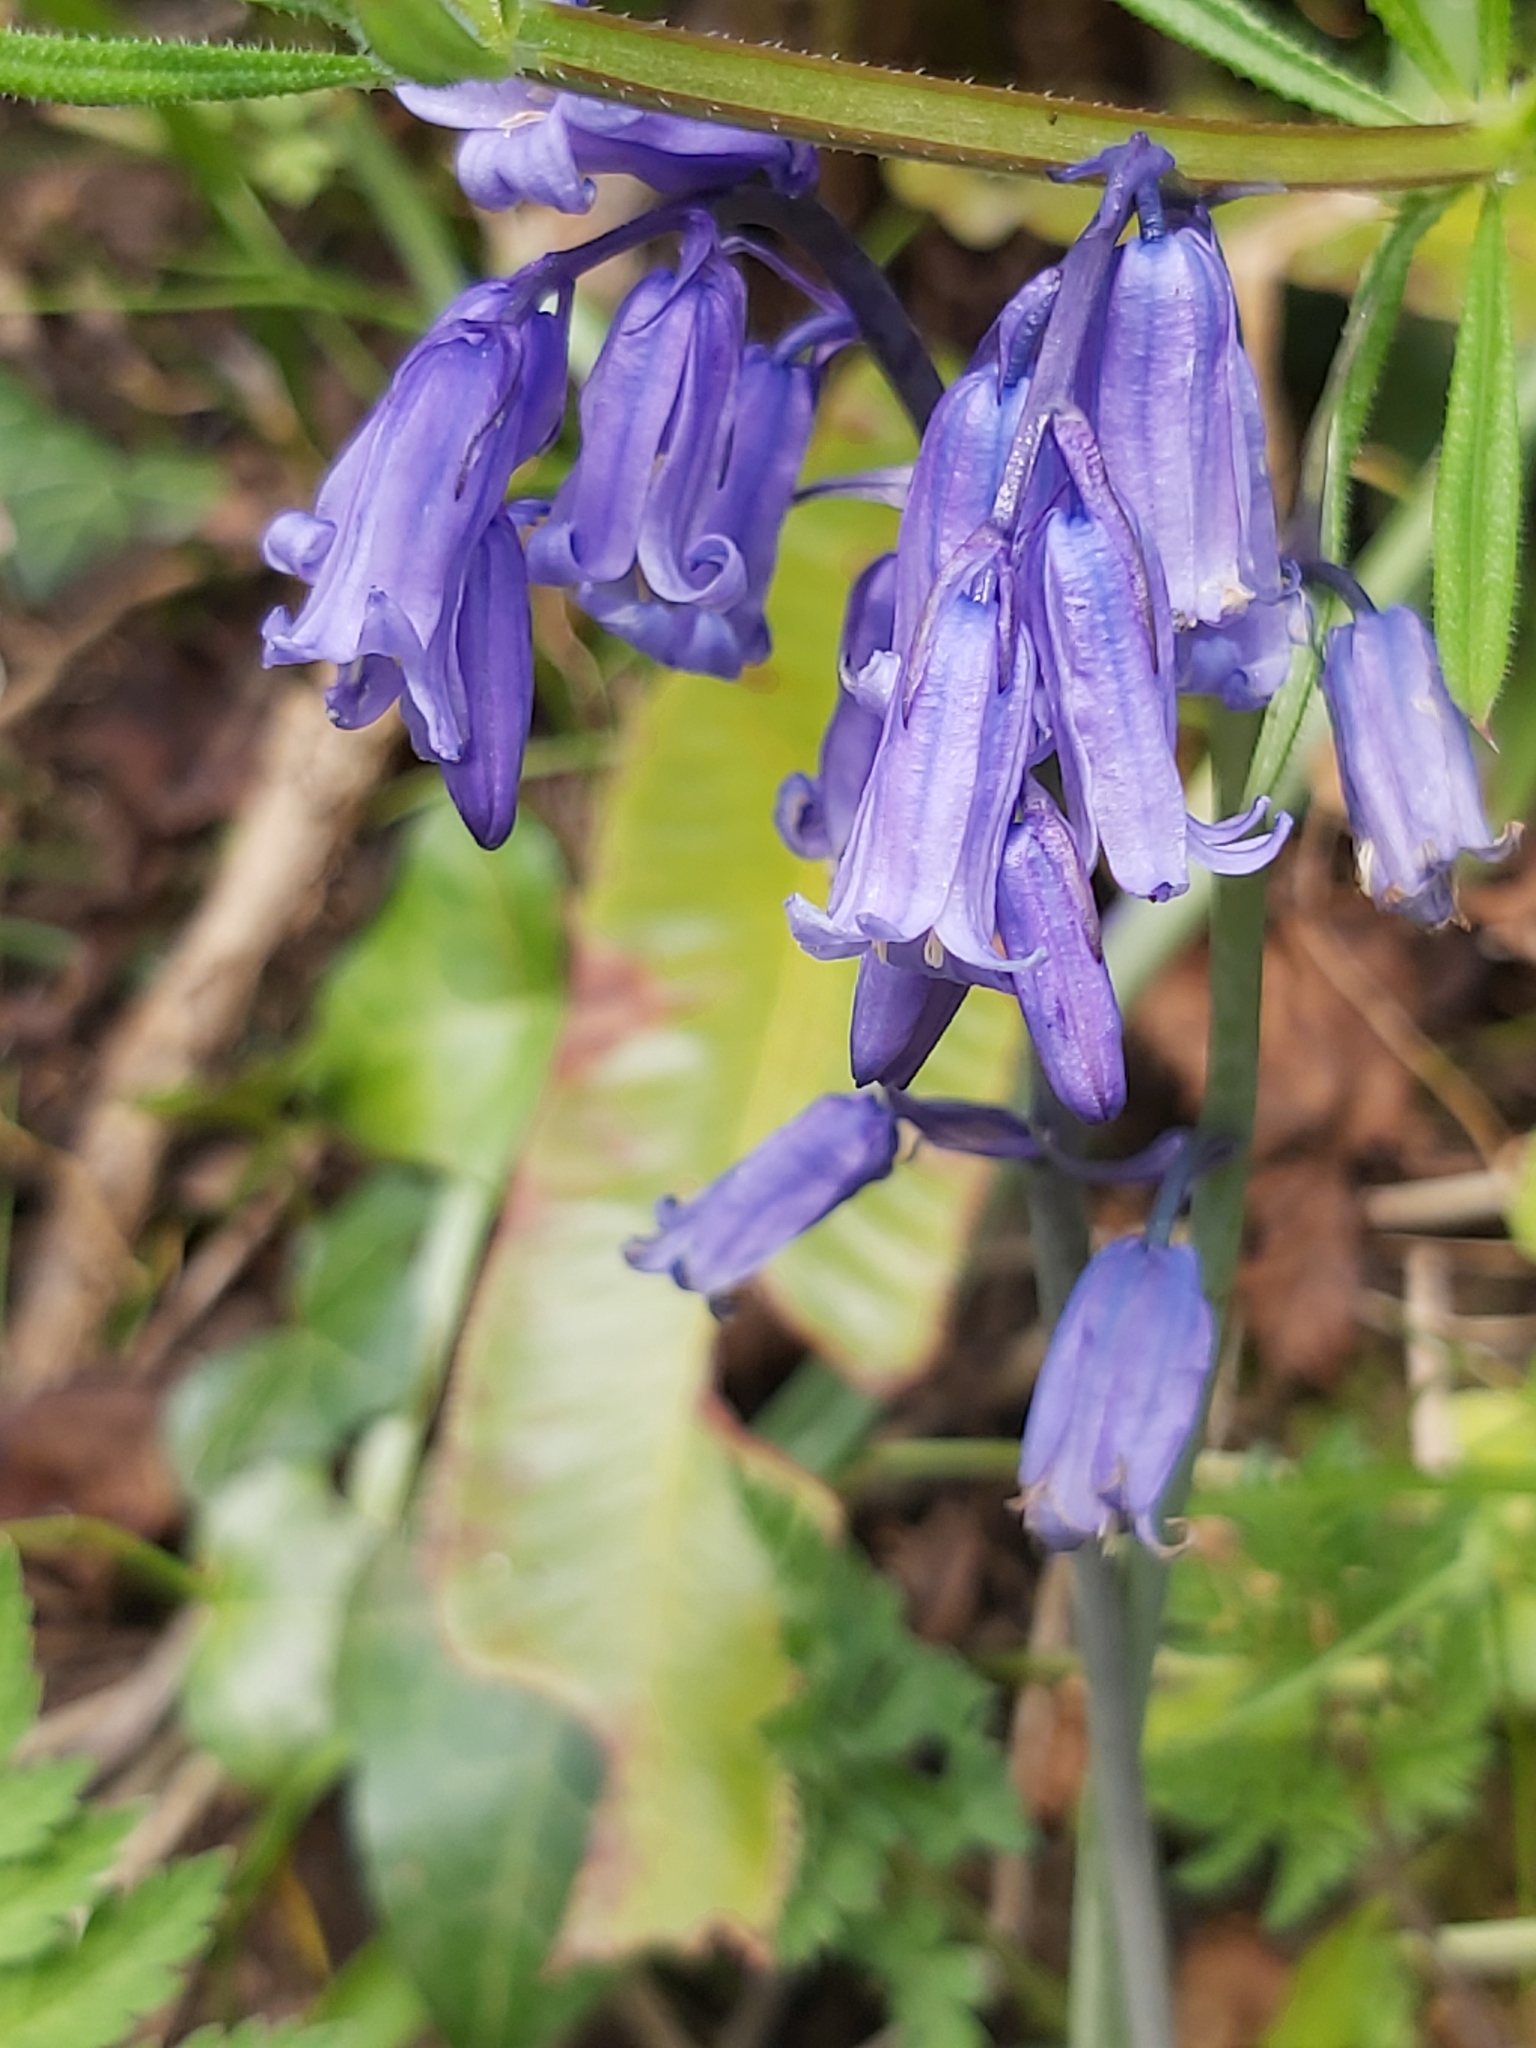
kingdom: Plantae
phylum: Tracheophyta
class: Liliopsida
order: Asparagales
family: Asparagaceae
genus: Hyacinthoides
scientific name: Hyacinthoides non-scripta
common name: Bluebell
